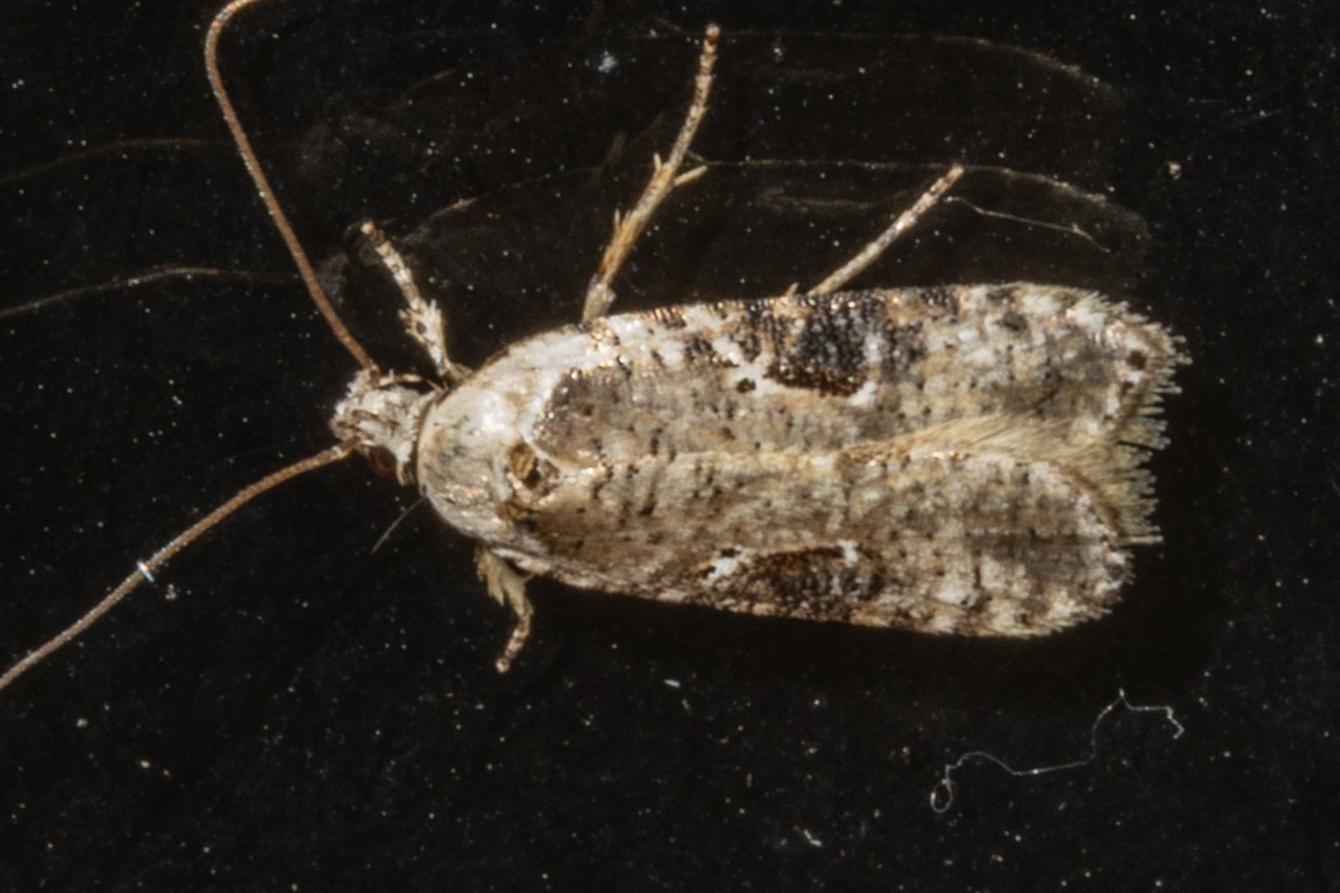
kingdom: Animalia
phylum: Arthropoda
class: Insecta
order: Lepidoptera
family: Depressariidae
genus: Agonopterix
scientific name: Agonopterix alstroemeriana
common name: Moth
